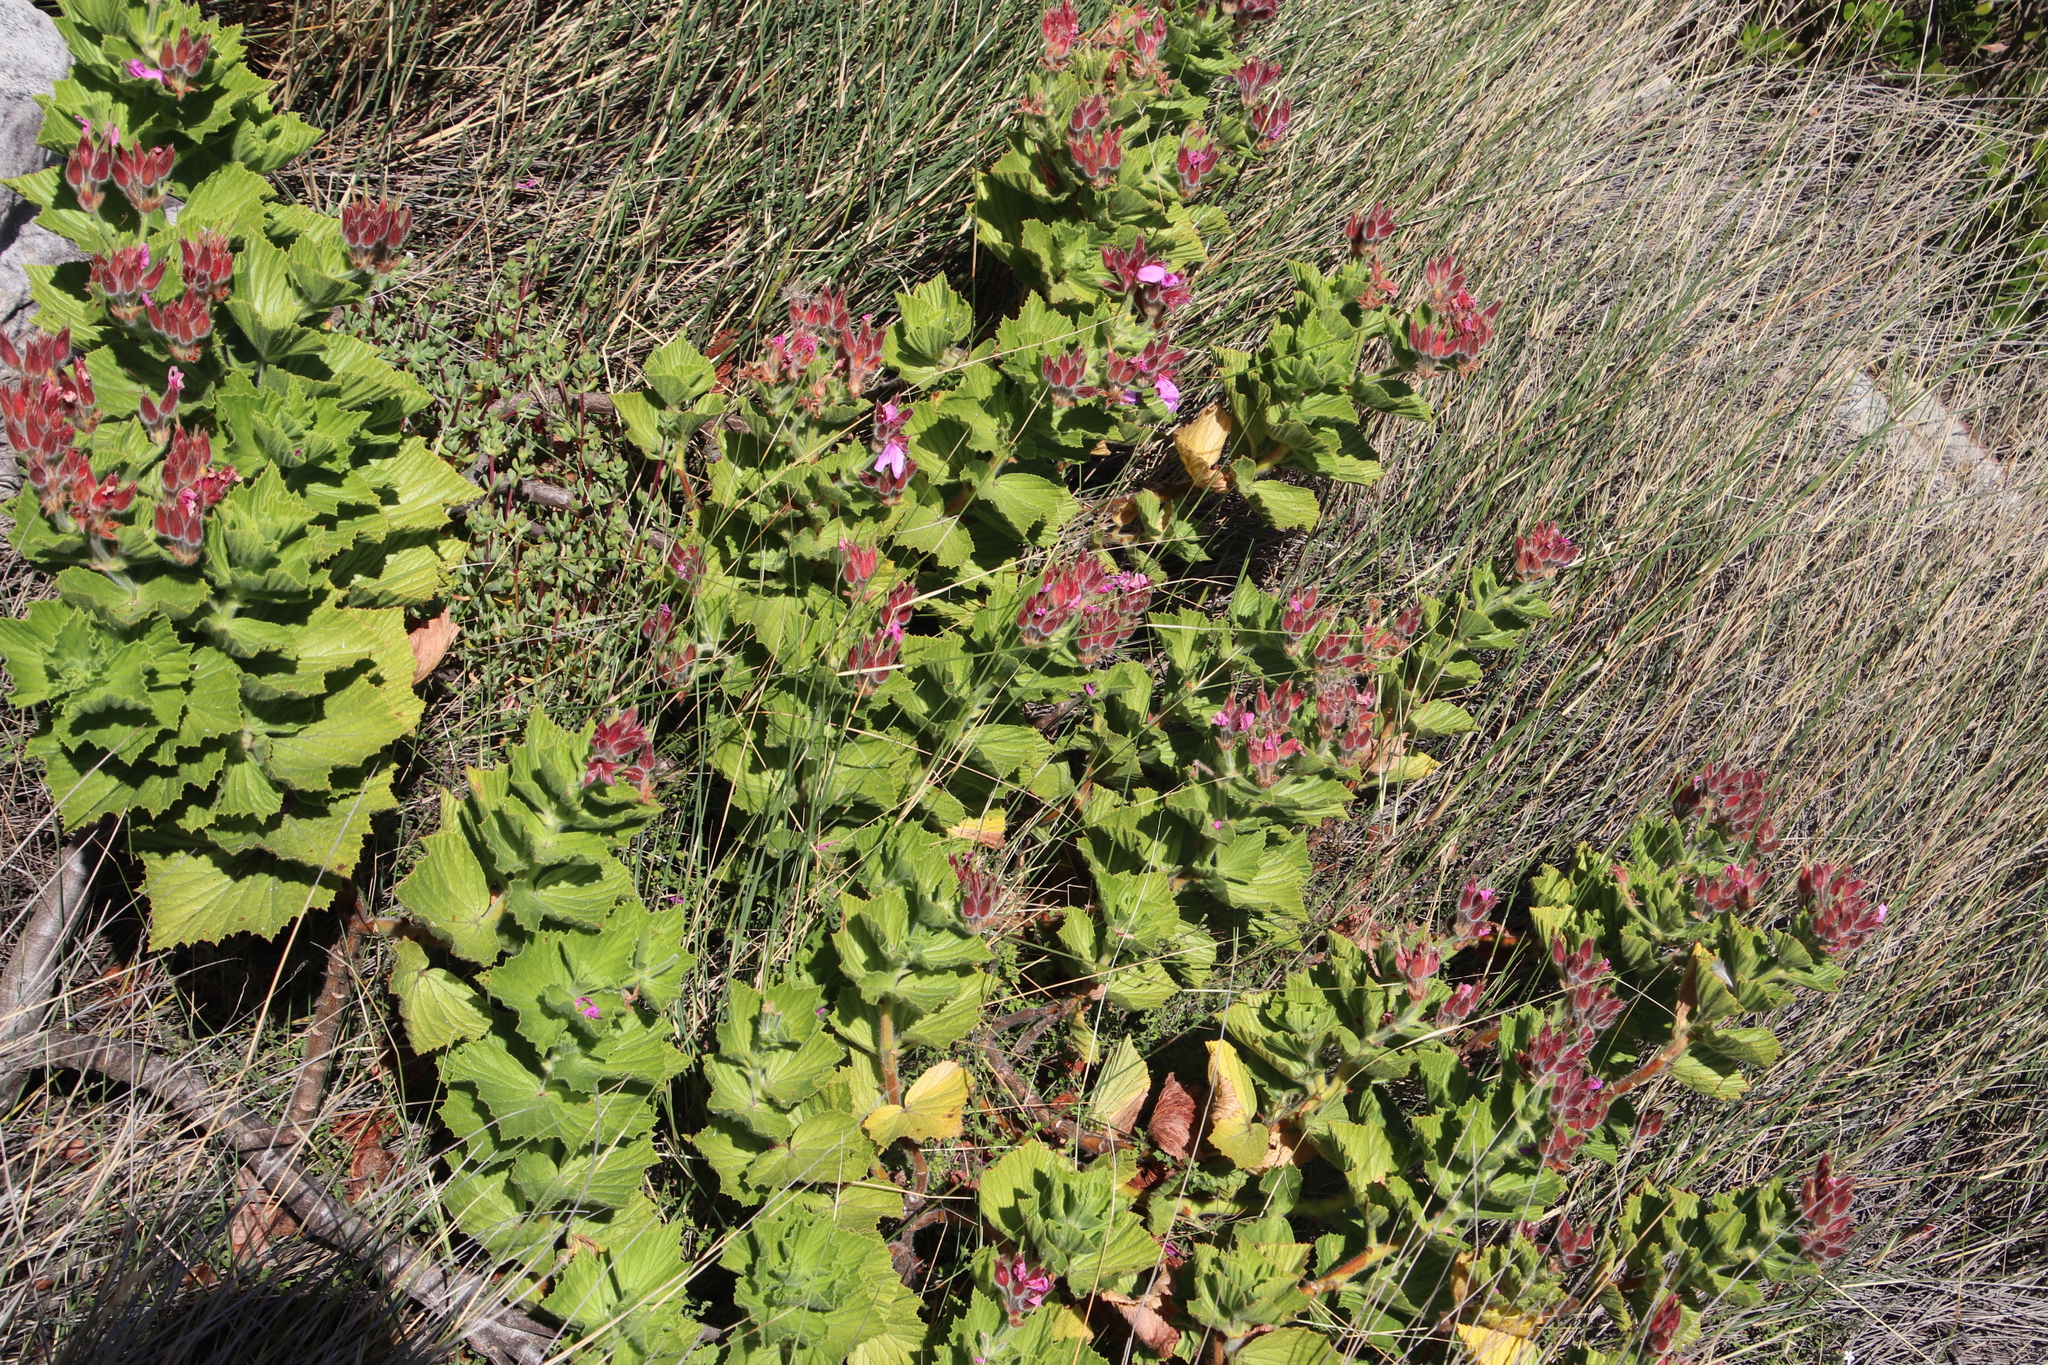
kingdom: Plantae
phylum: Tracheophyta
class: Magnoliopsida
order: Geraniales
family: Geraniaceae
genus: Pelargonium
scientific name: Pelargonium cucullatum
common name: Tree pelargonium
